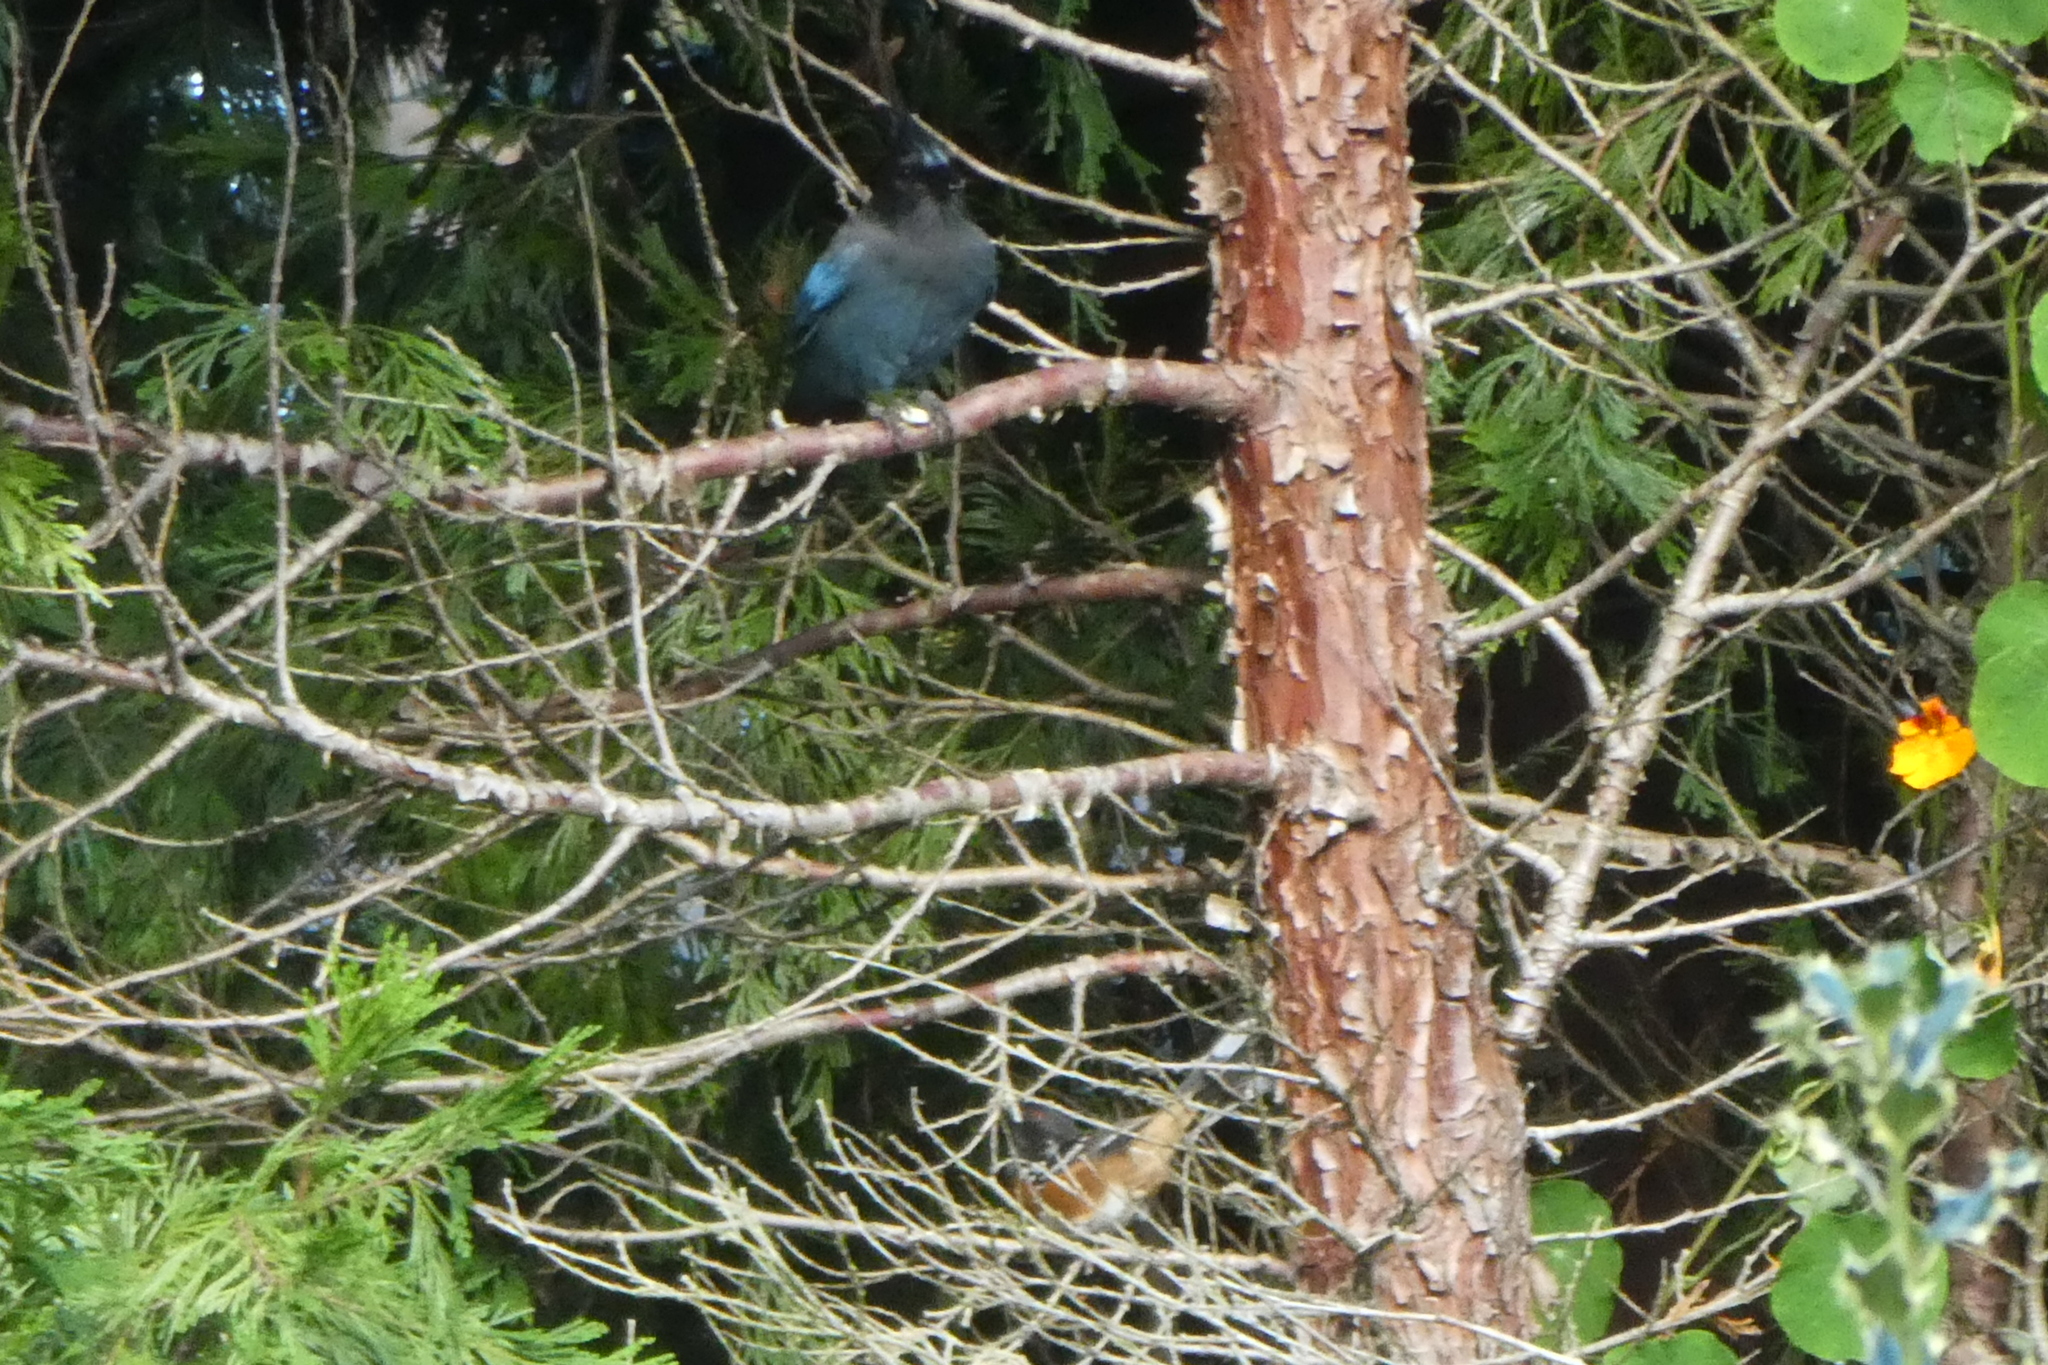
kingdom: Animalia
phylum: Chordata
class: Aves
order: Passeriformes
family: Corvidae
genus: Cyanocitta
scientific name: Cyanocitta stelleri
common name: Steller's jay
